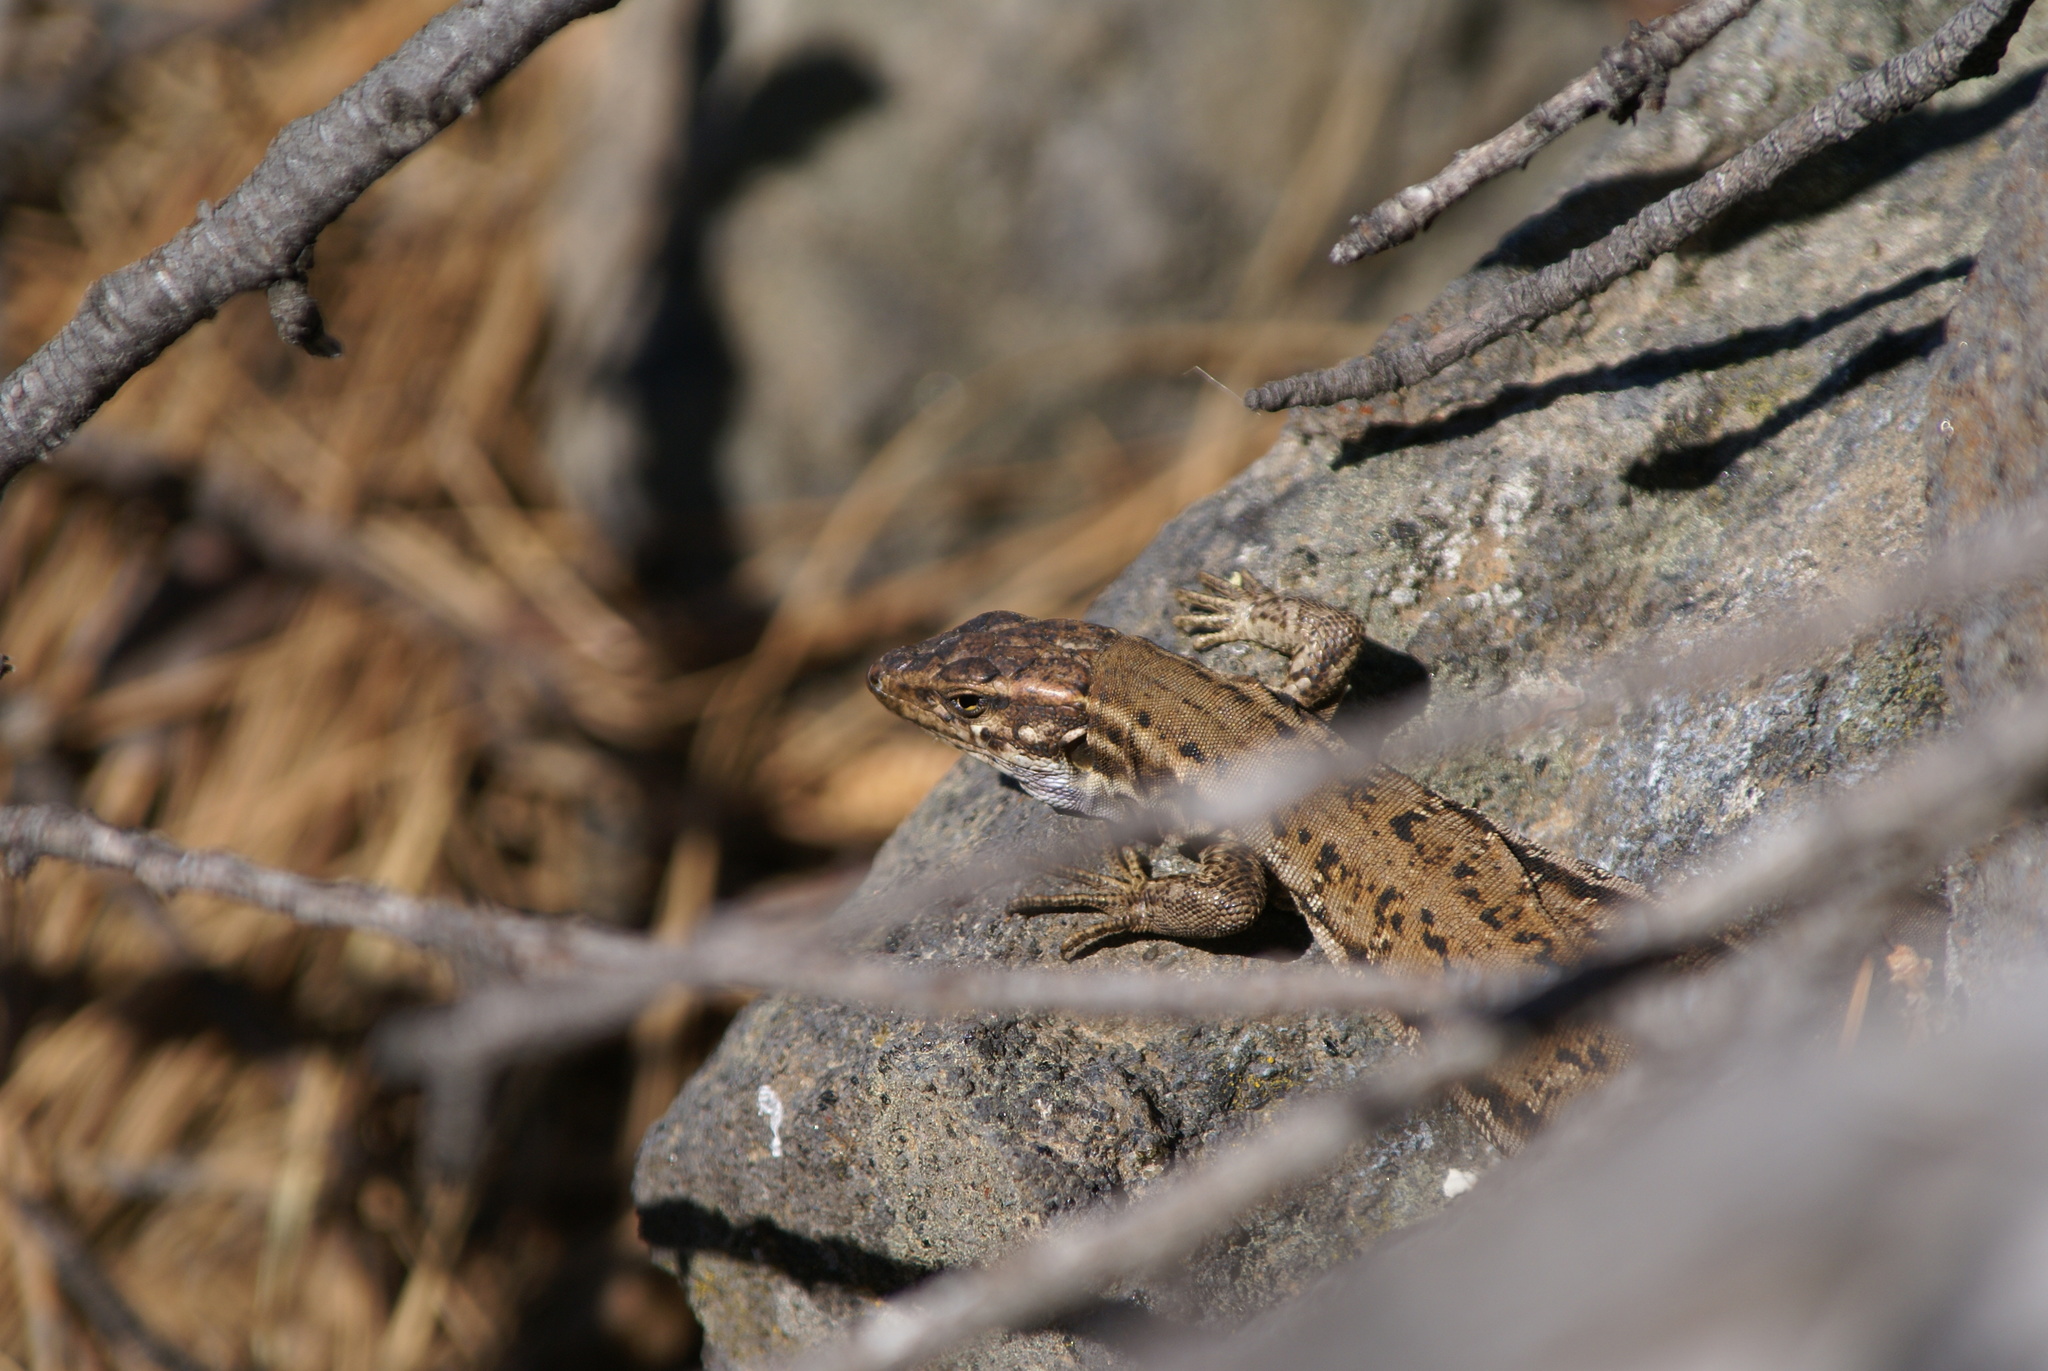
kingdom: Animalia
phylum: Chordata
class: Squamata
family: Lacertidae
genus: Gallotia
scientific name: Gallotia galloti
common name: Gallot's lizard
